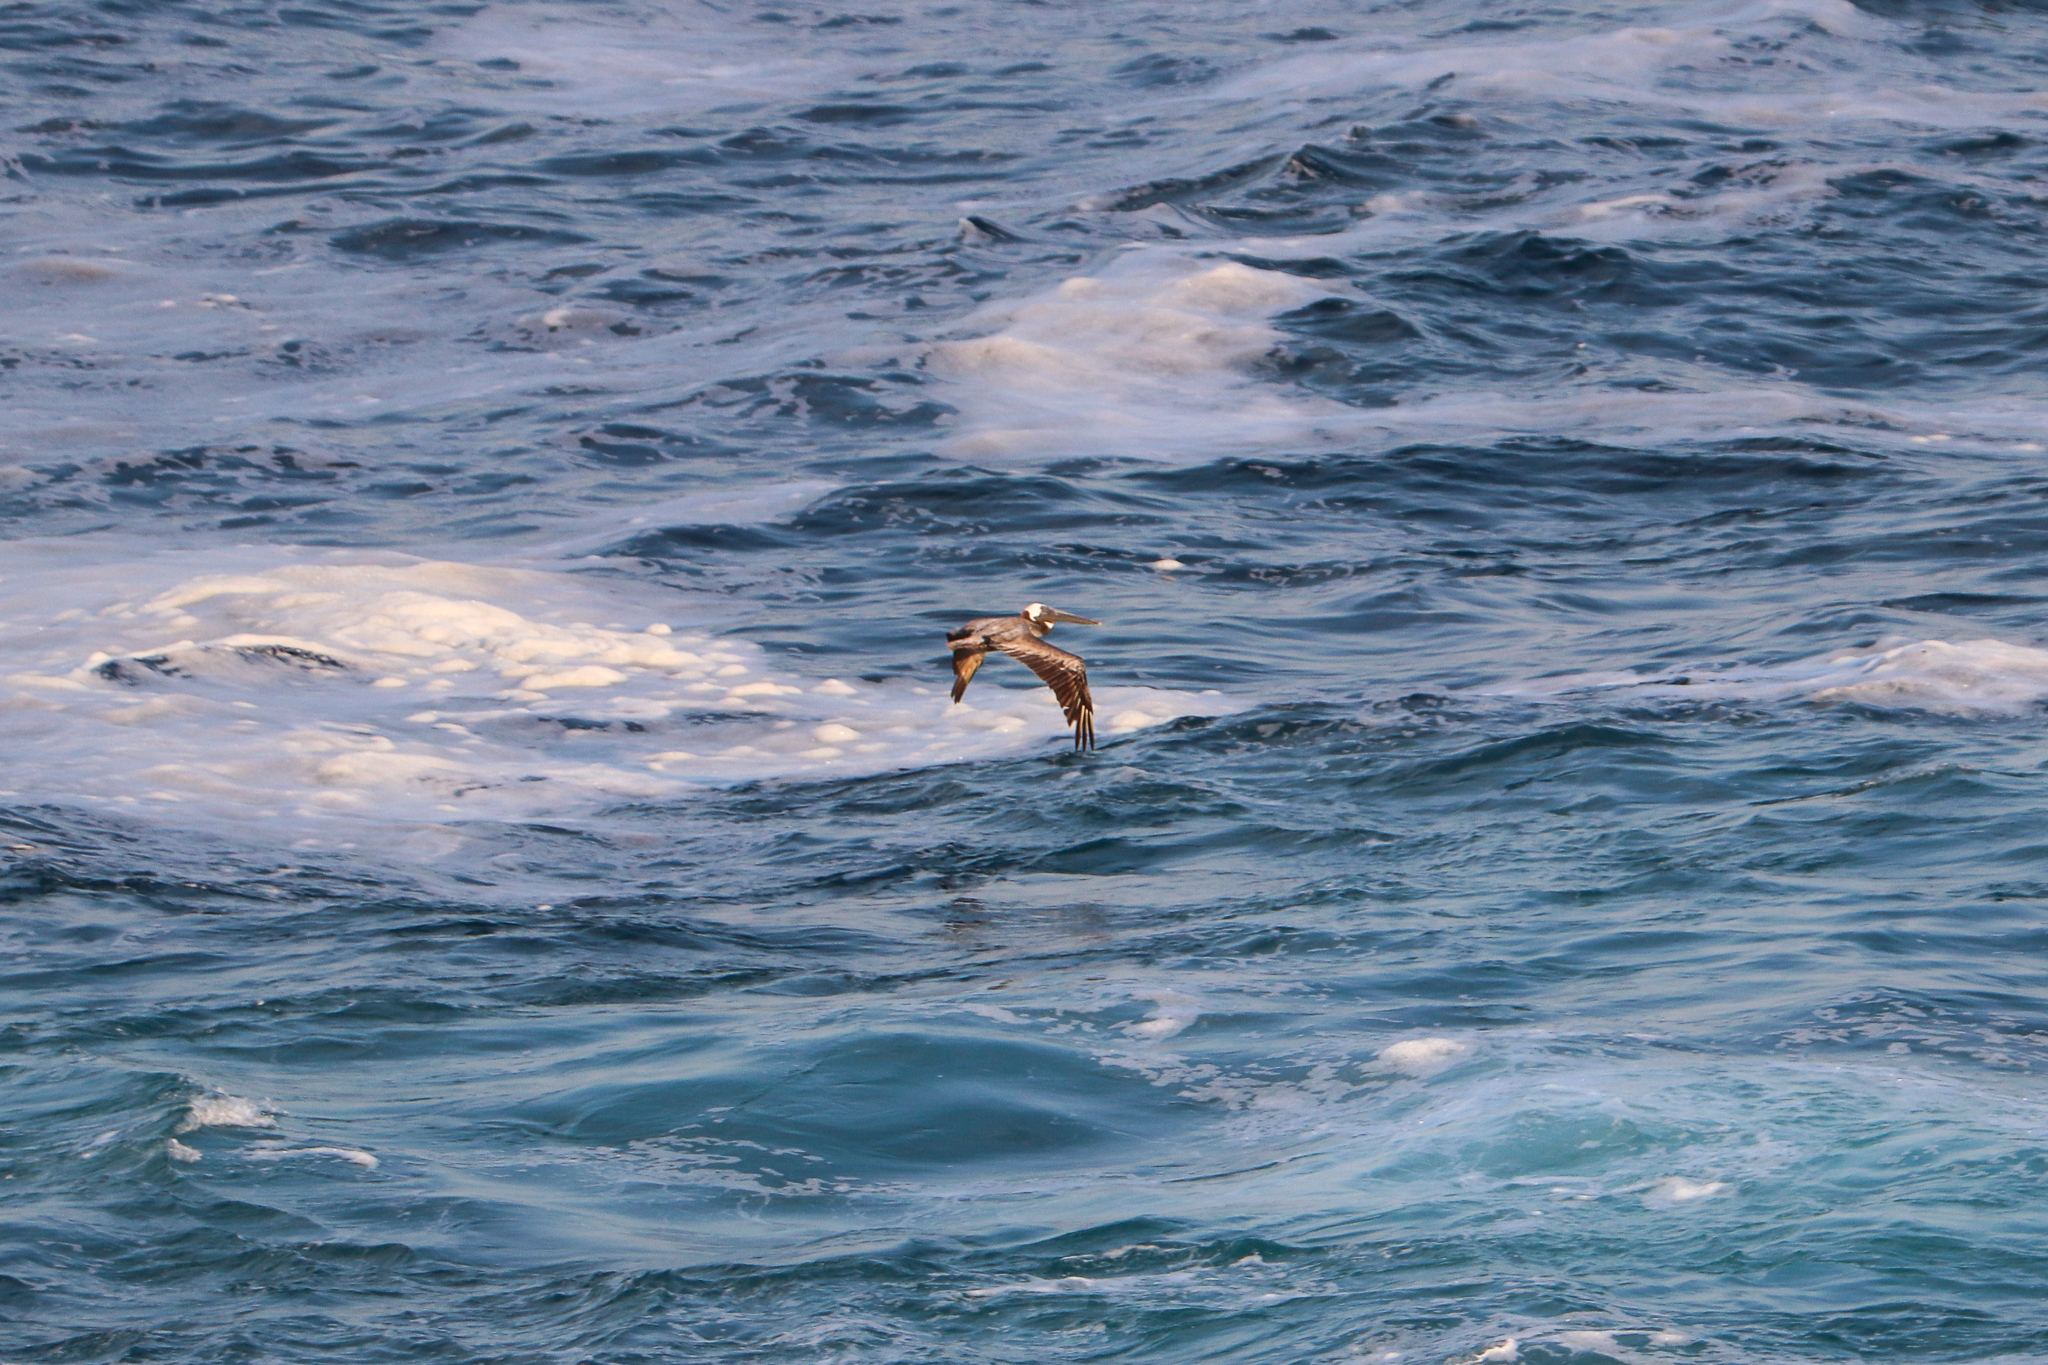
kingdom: Animalia
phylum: Chordata
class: Aves
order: Pelecaniformes
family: Pelecanidae
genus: Pelecanus
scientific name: Pelecanus occidentalis
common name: Brown pelican
